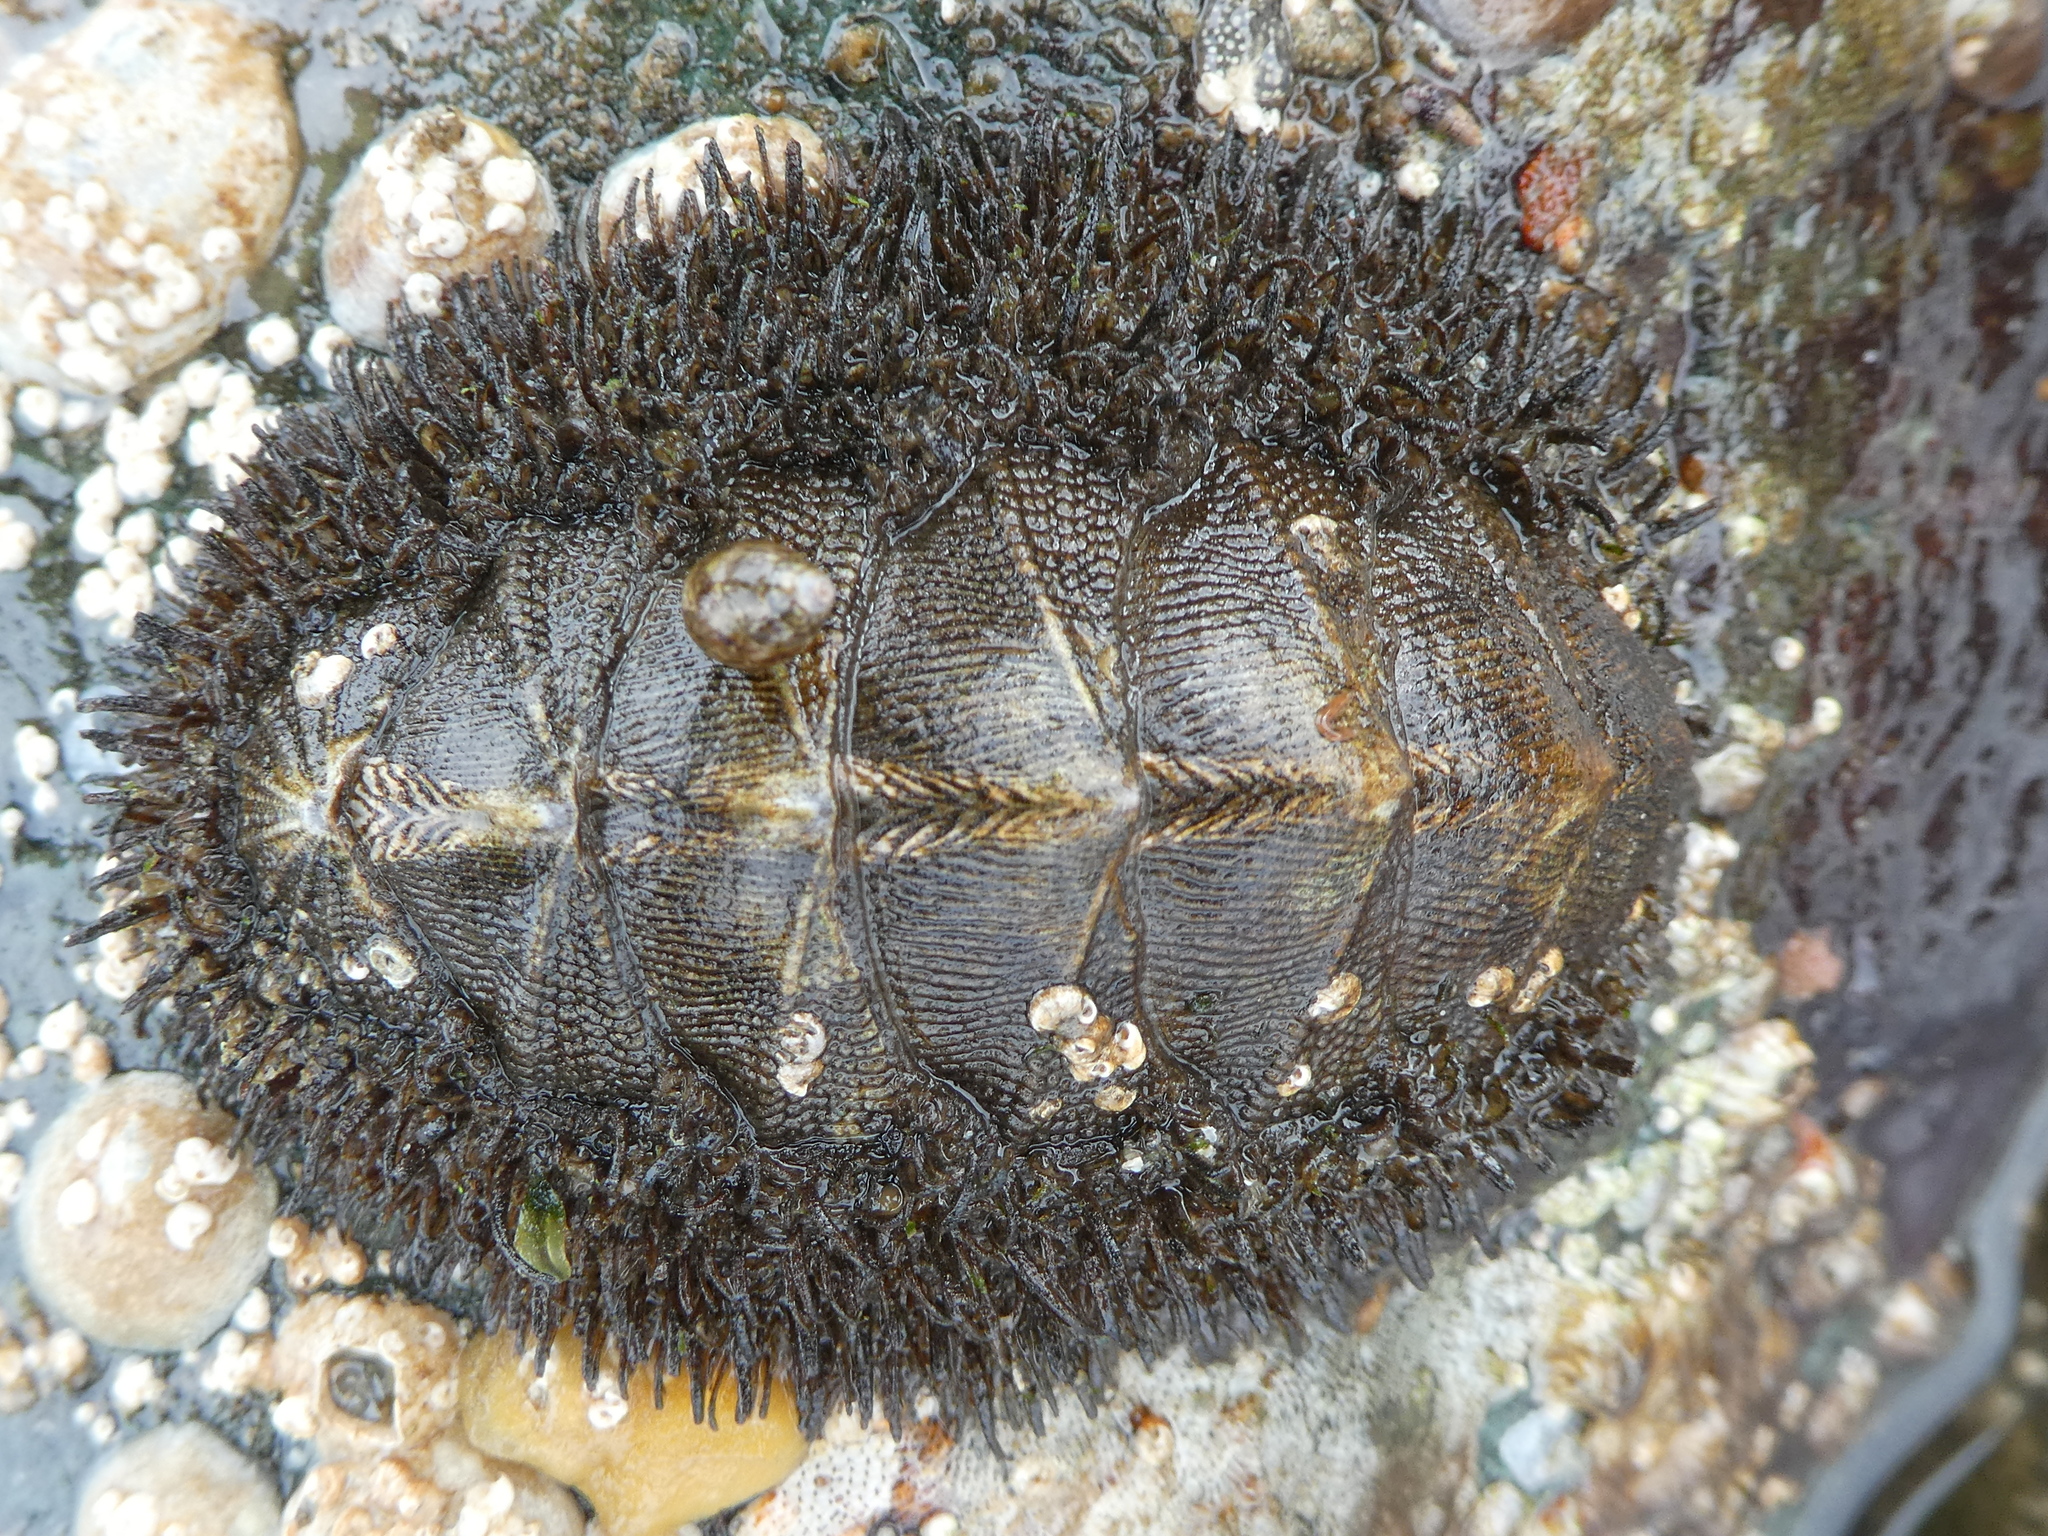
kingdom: Animalia
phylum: Mollusca
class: Polyplacophora
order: Chitonida
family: Mopaliidae
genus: Mopalia
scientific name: Mopalia muscosa
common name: Mossy chiton
